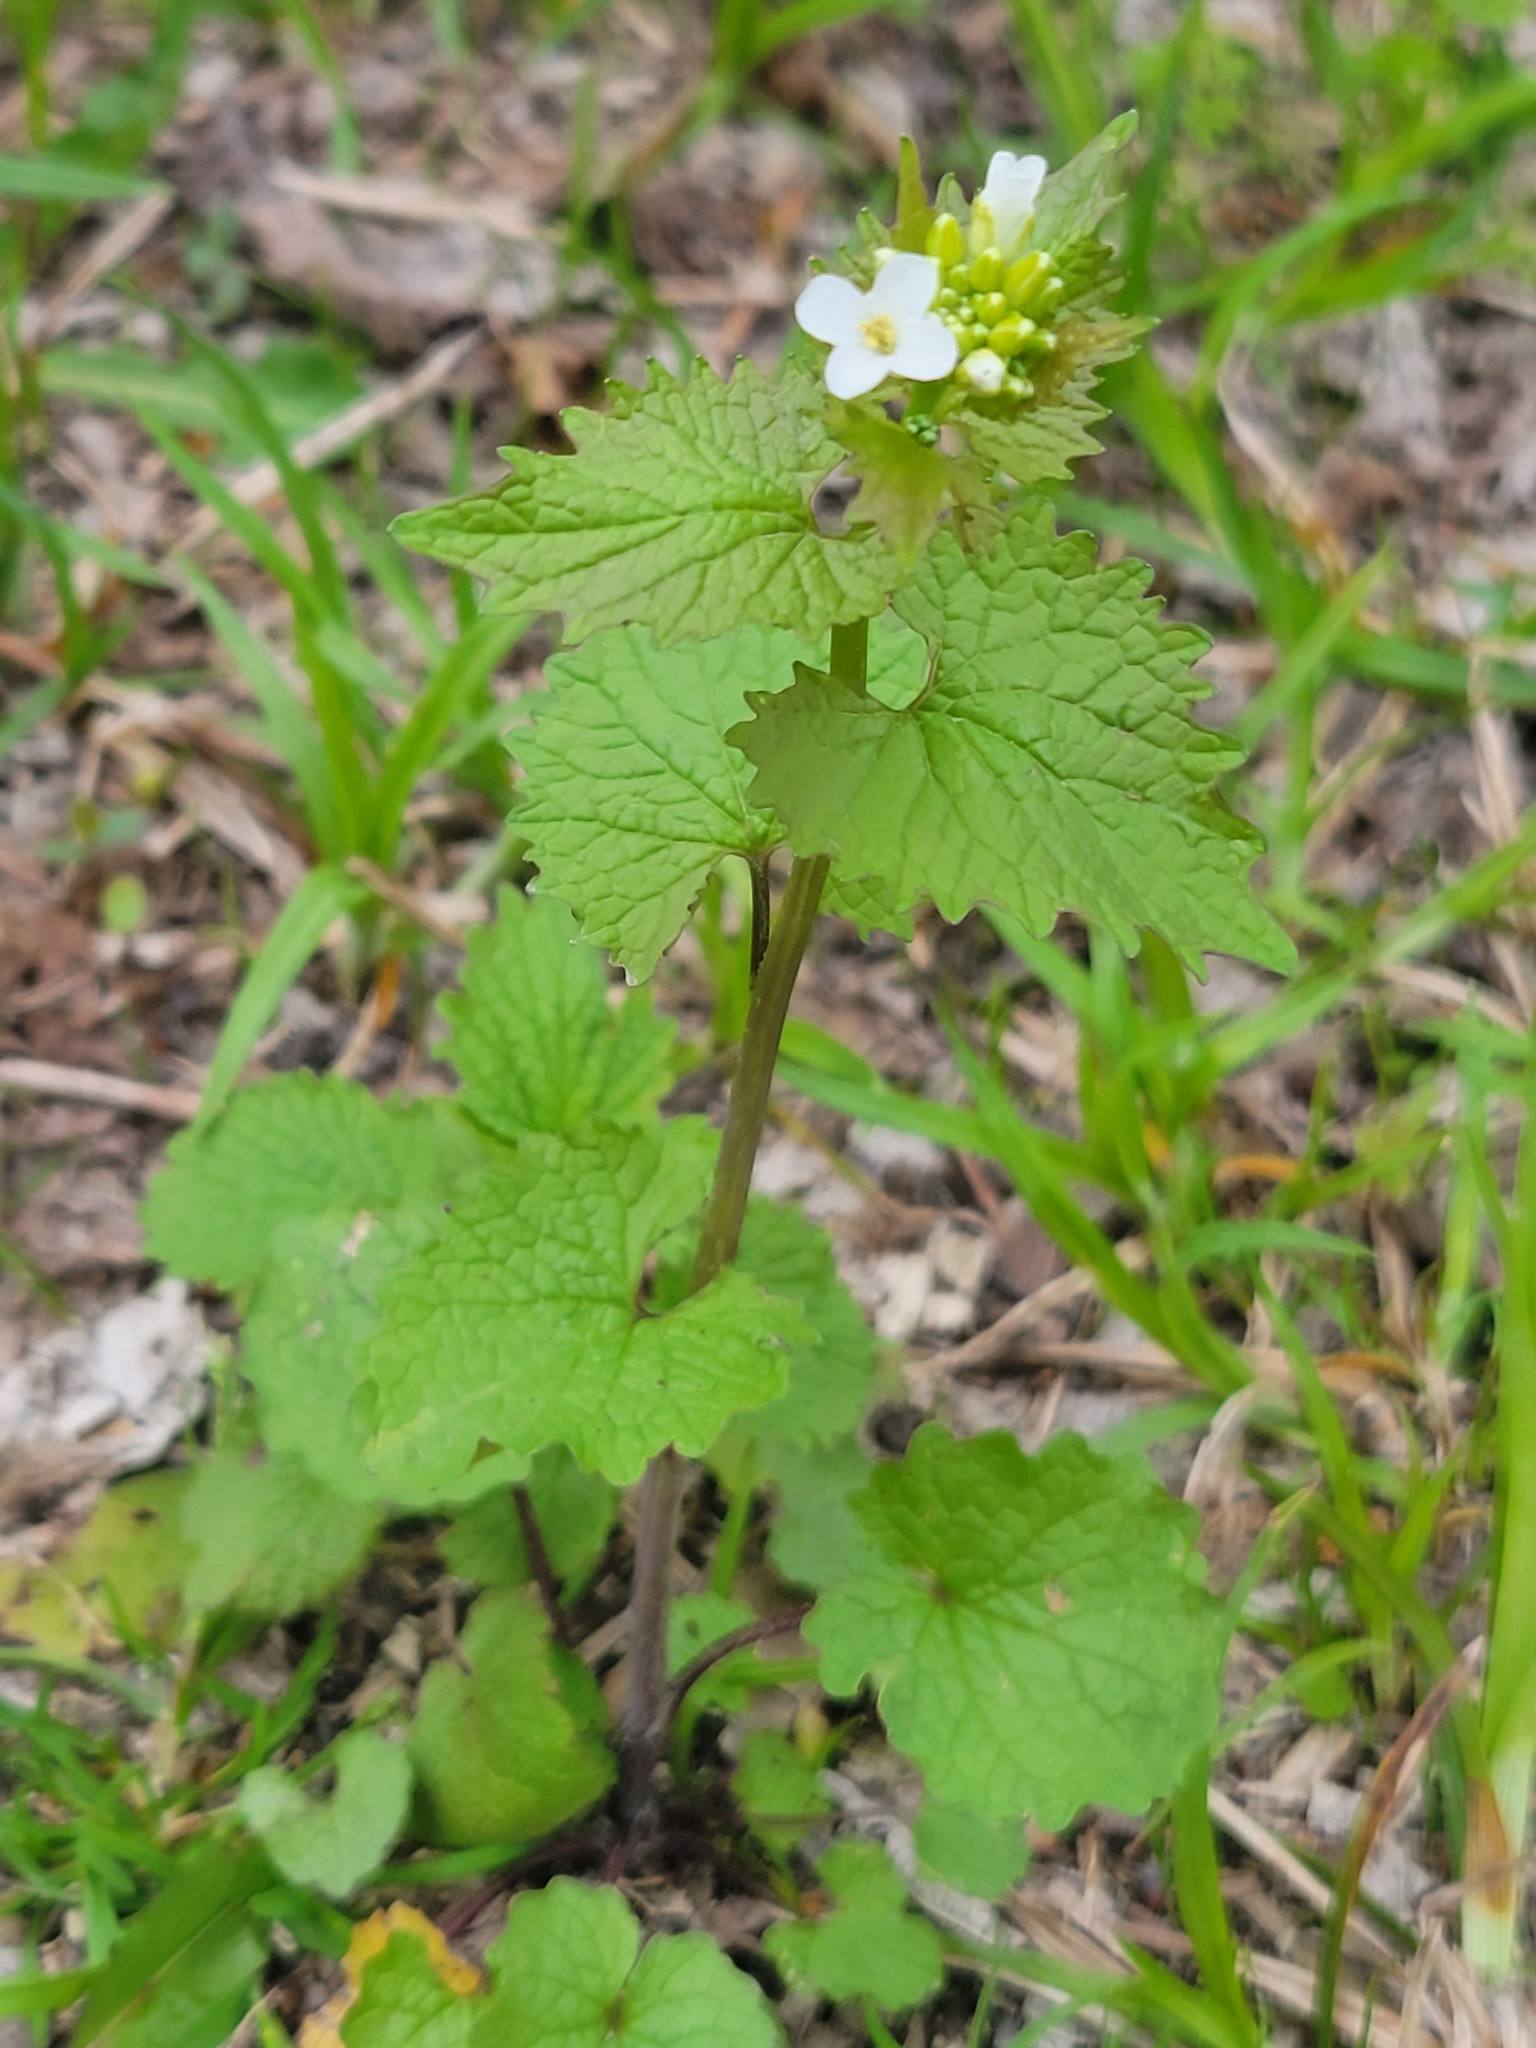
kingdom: Plantae
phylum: Tracheophyta
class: Magnoliopsida
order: Brassicales
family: Brassicaceae
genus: Alliaria
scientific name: Alliaria petiolata
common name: Garlic mustard
